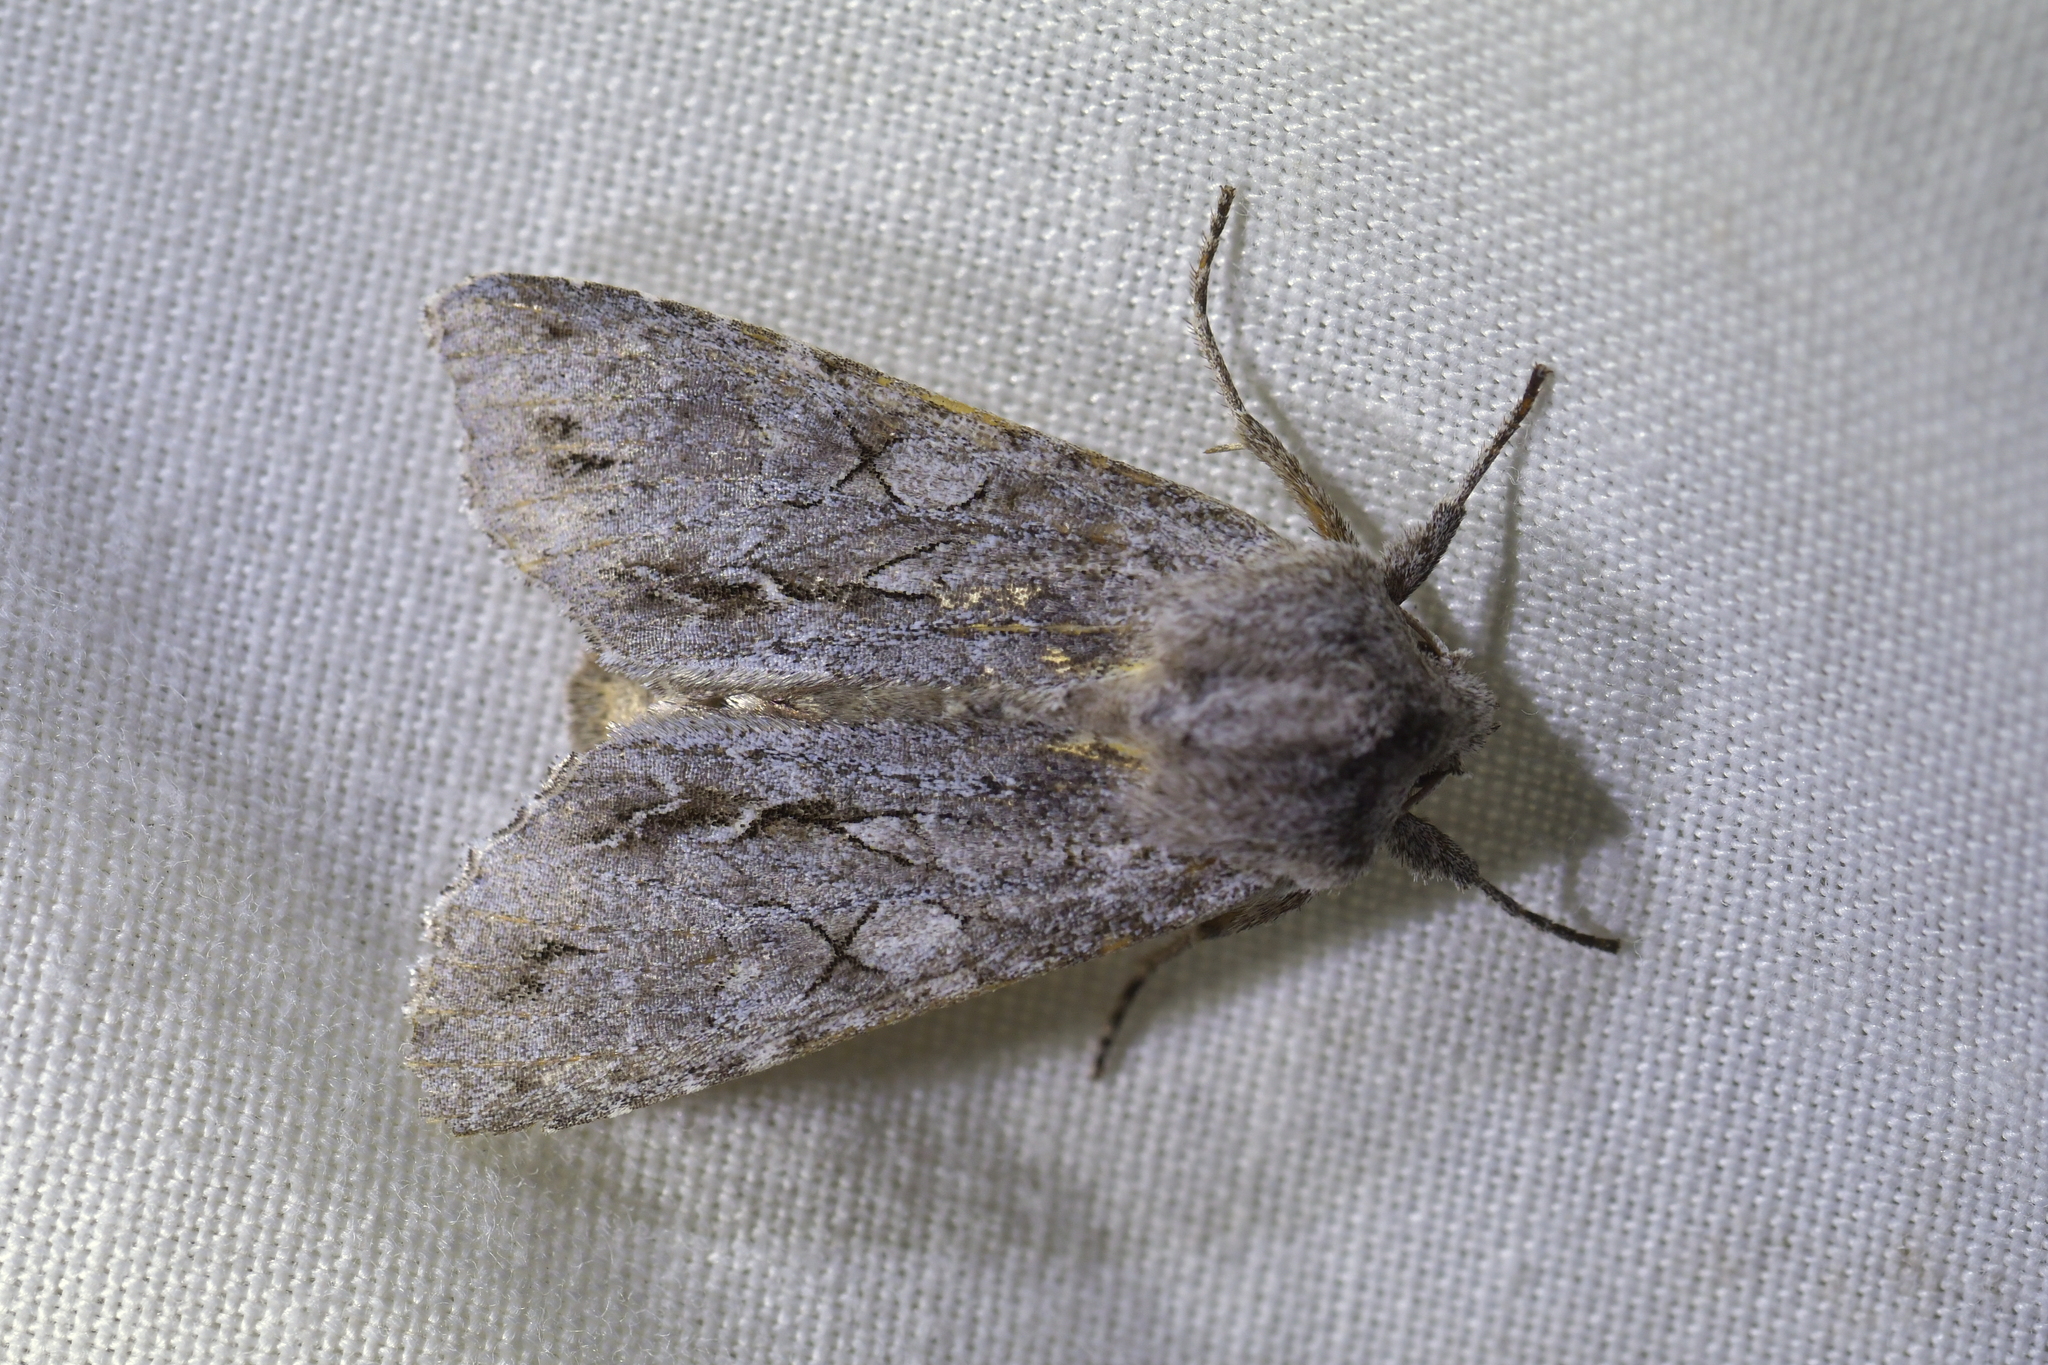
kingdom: Animalia
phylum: Arthropoda
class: Insecta
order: Lepidoptera
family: Noctuidae
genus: Ichneutica
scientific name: Ichneutica
